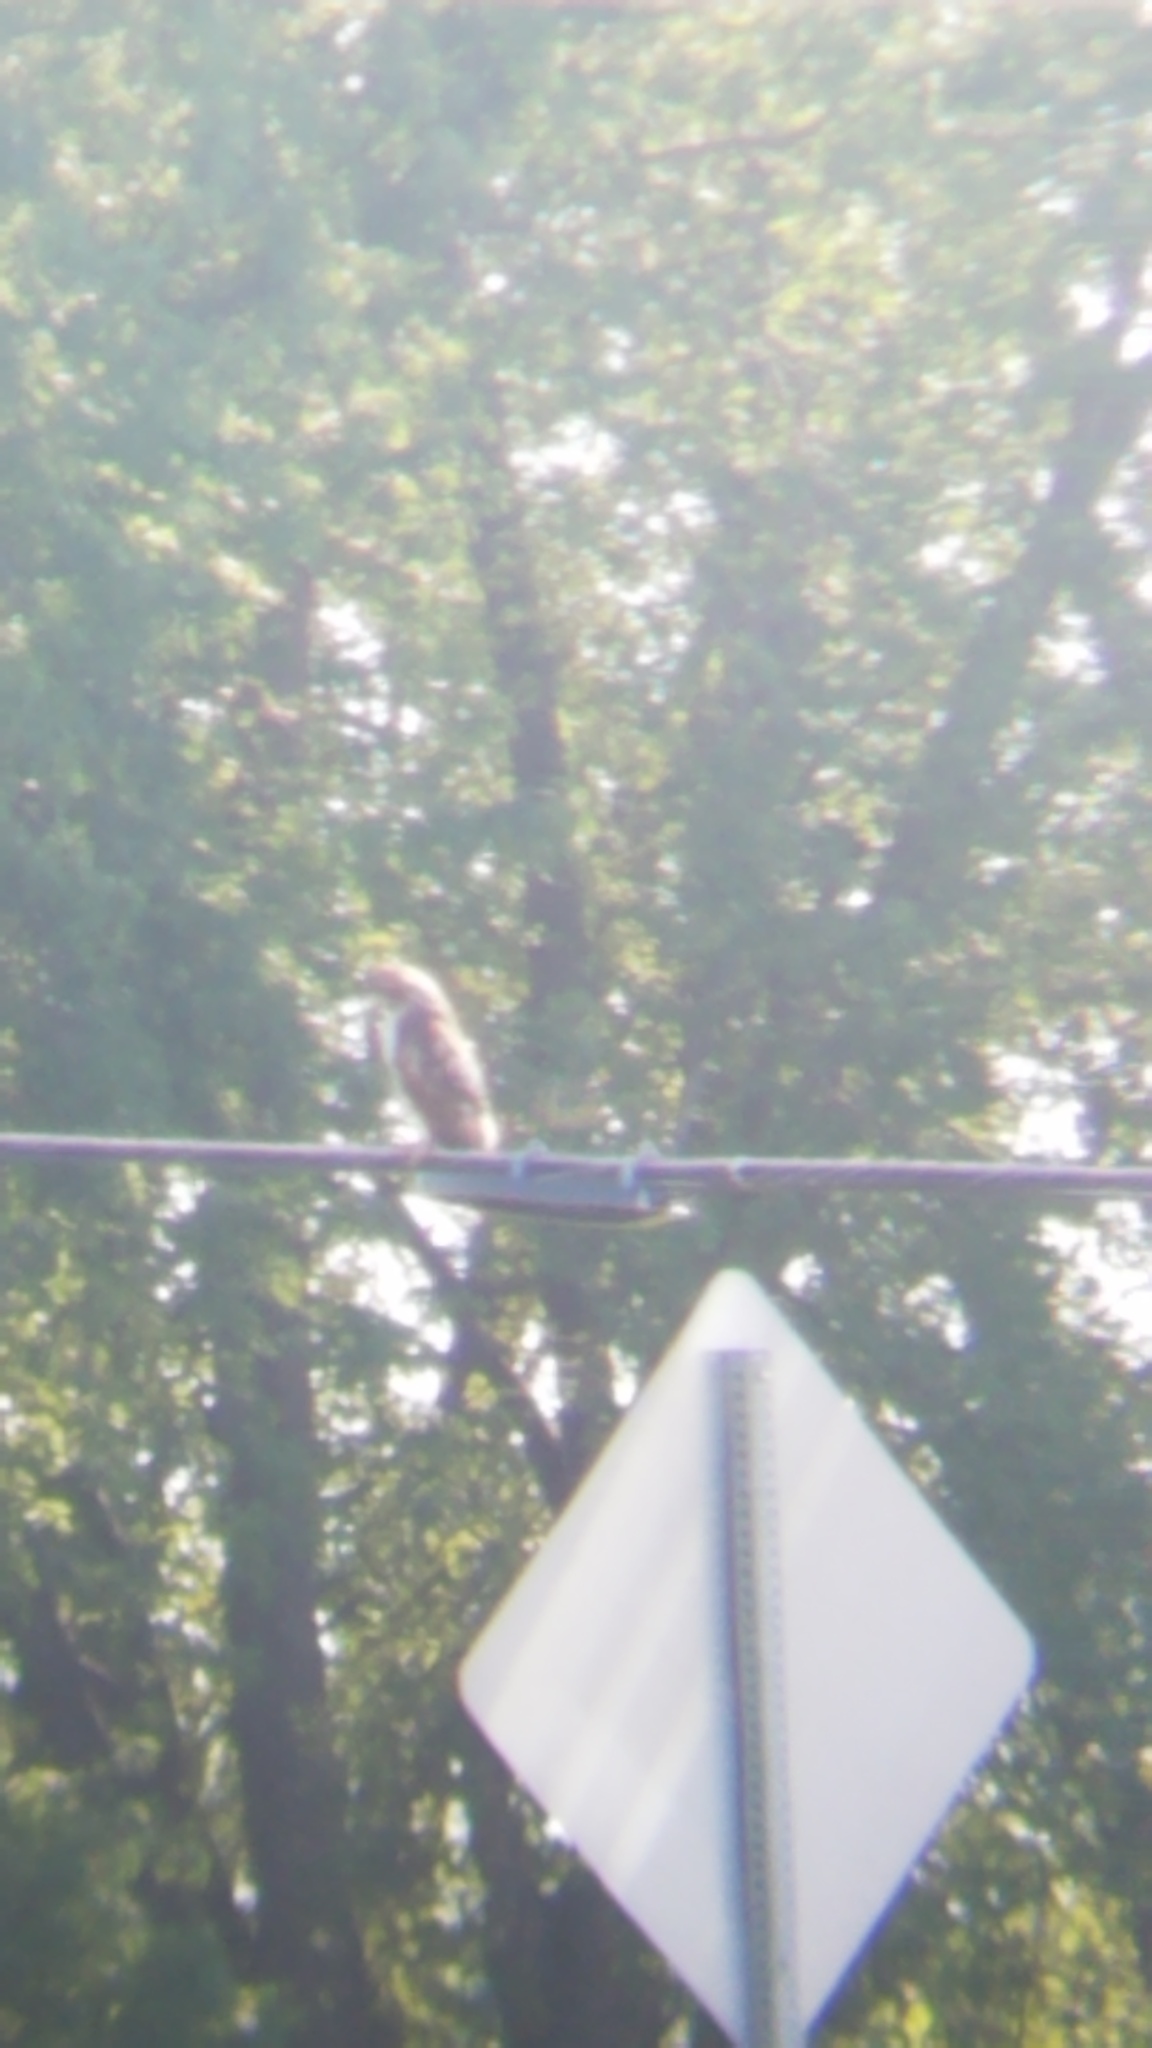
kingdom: Animalia
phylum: Chordata
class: Aves
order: Accipitriformes
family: Accipitridae
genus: Buteo
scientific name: Buteo jamaicensis
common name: Red-tailed hawk
